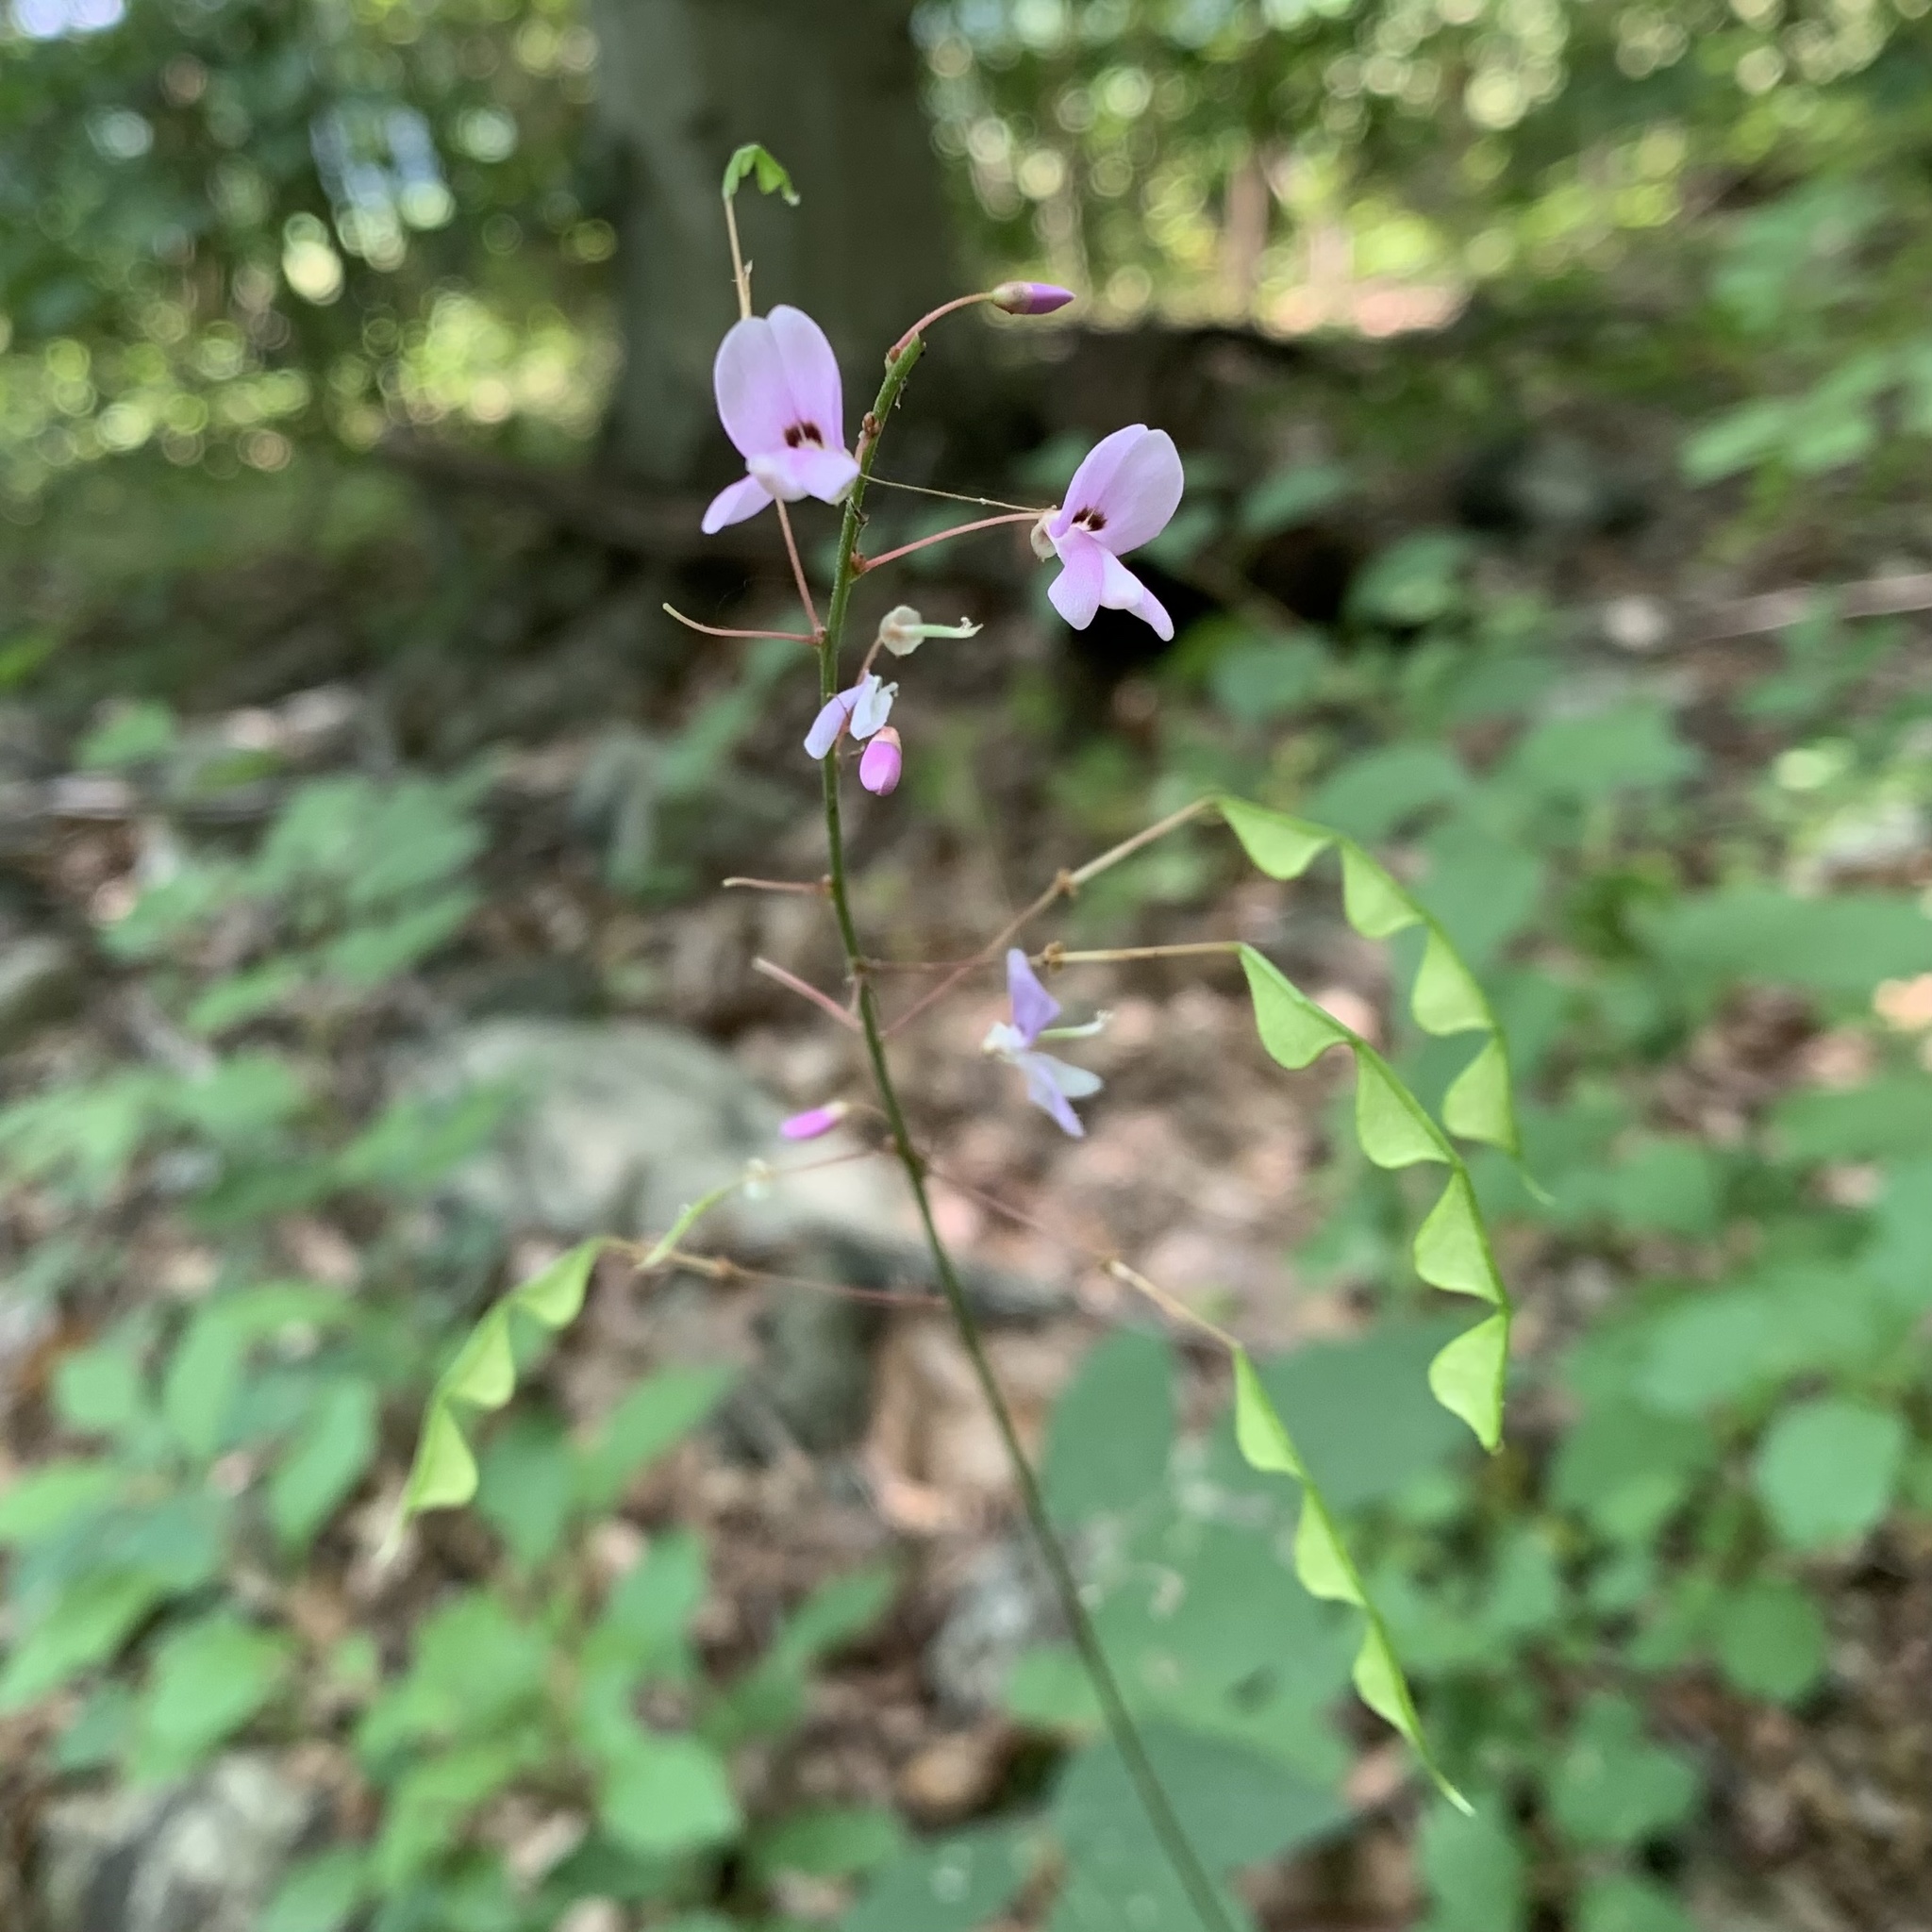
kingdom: Plantae
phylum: Tracheophyta
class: Magnoliopsida
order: Fabales
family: Fabaceae
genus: Hylodesmum
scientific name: Hylodesmum nudiflorum
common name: Bare-stemmed tick-trefoil
